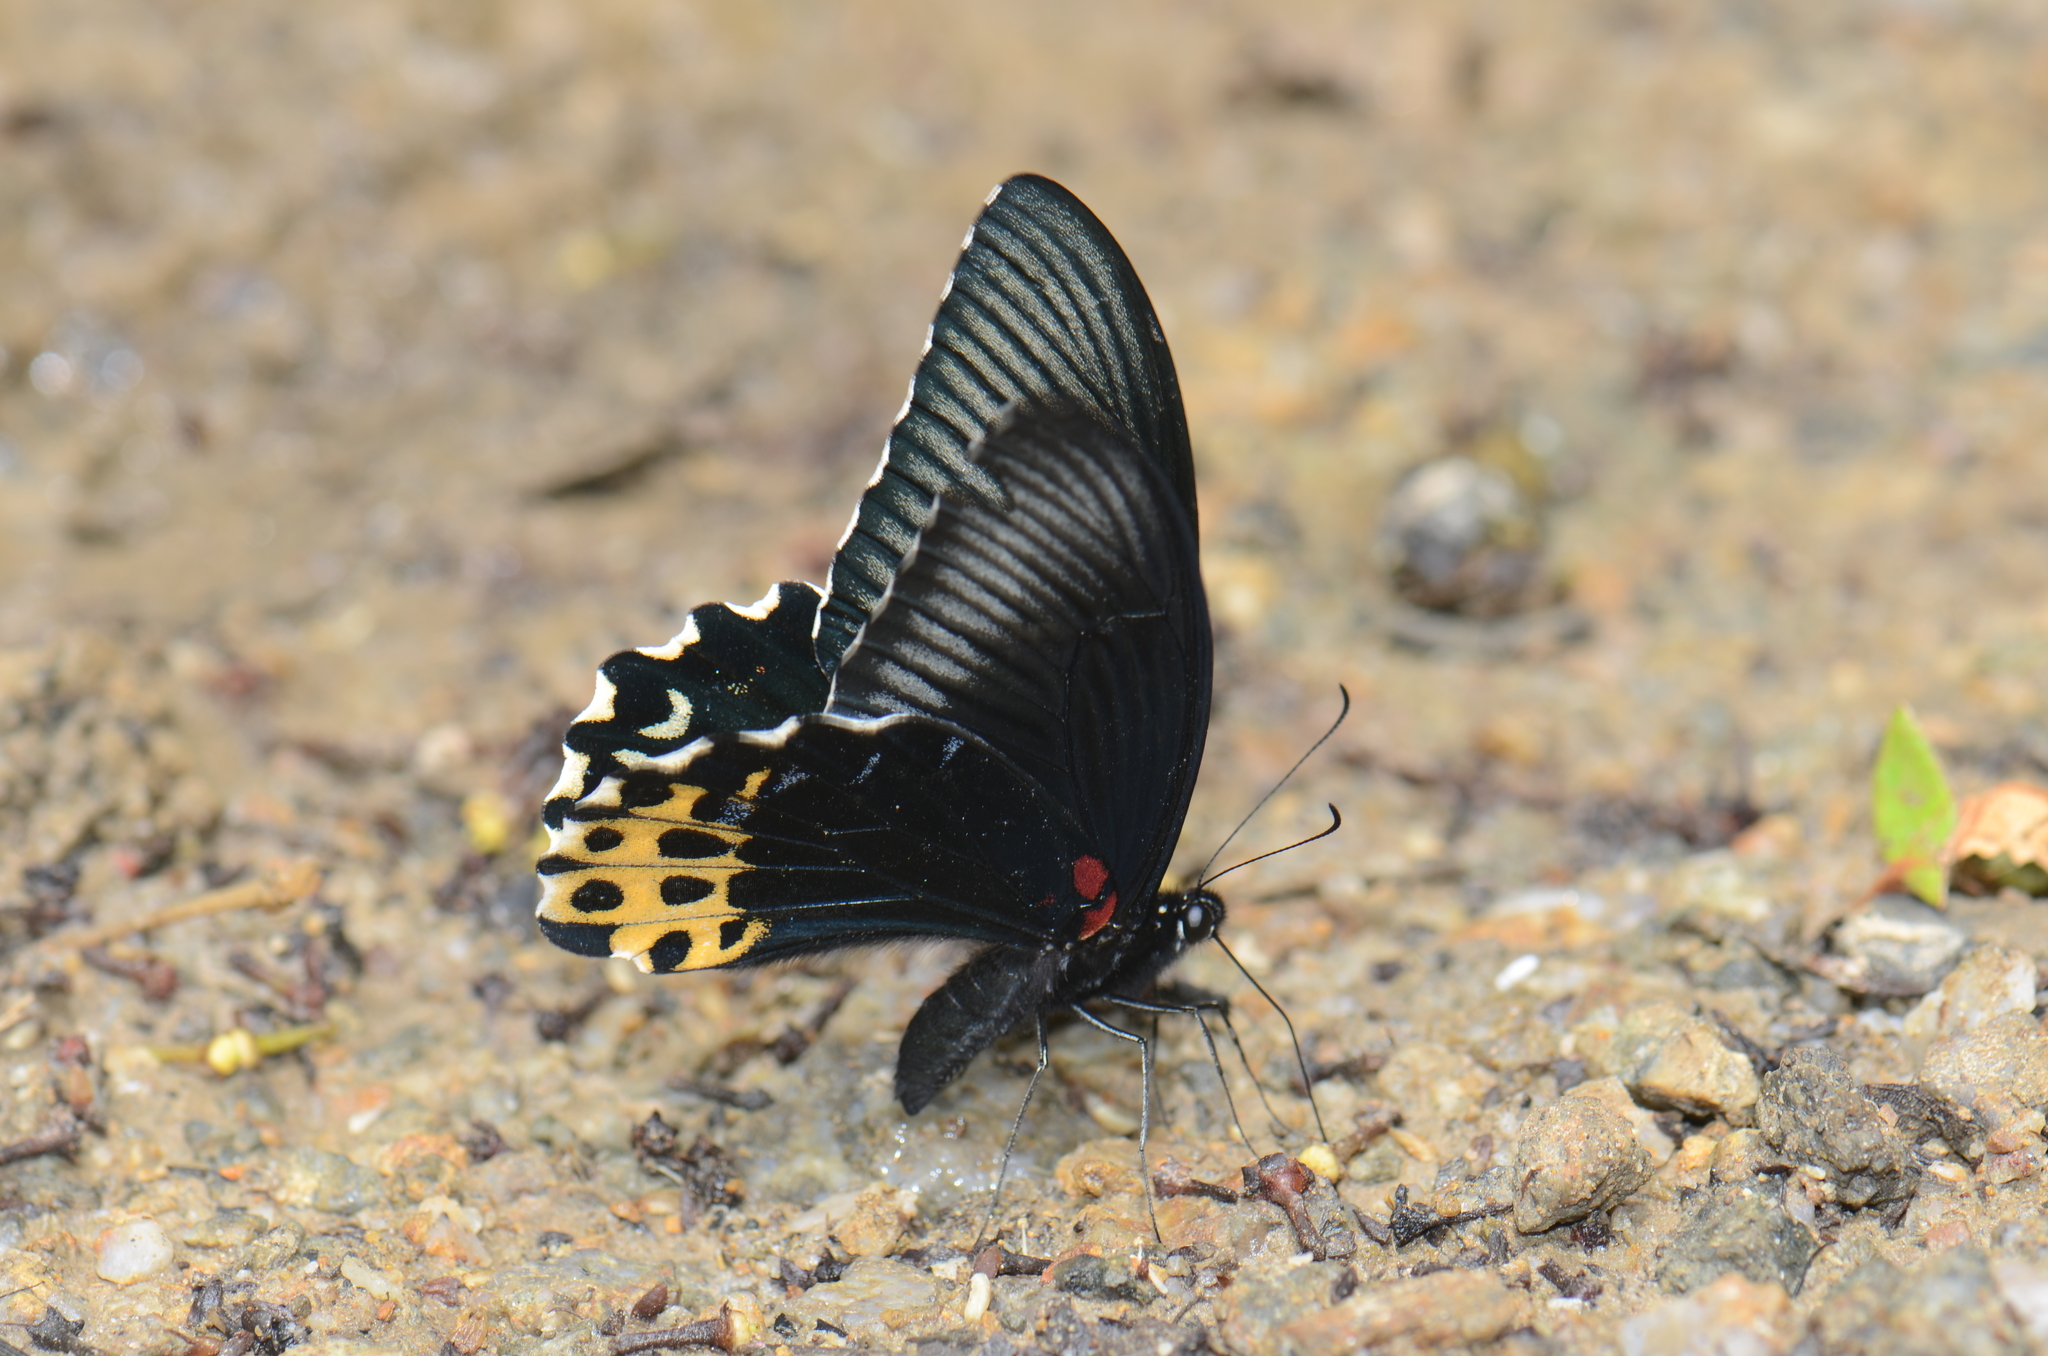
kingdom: Animalia
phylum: Arthropoda
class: Insecta
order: Lepidoptera
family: Papilionidae
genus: Papilio
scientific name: Papilio forbesi
